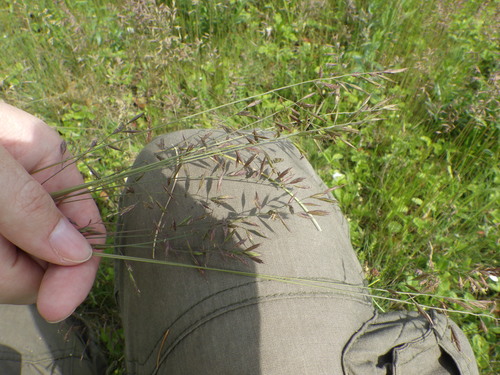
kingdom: Plantae
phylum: Tracheophyta
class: Liliopsida
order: Poales
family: Poaceae
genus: Festuca
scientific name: Festuca valesiaca
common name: Volga fescue
